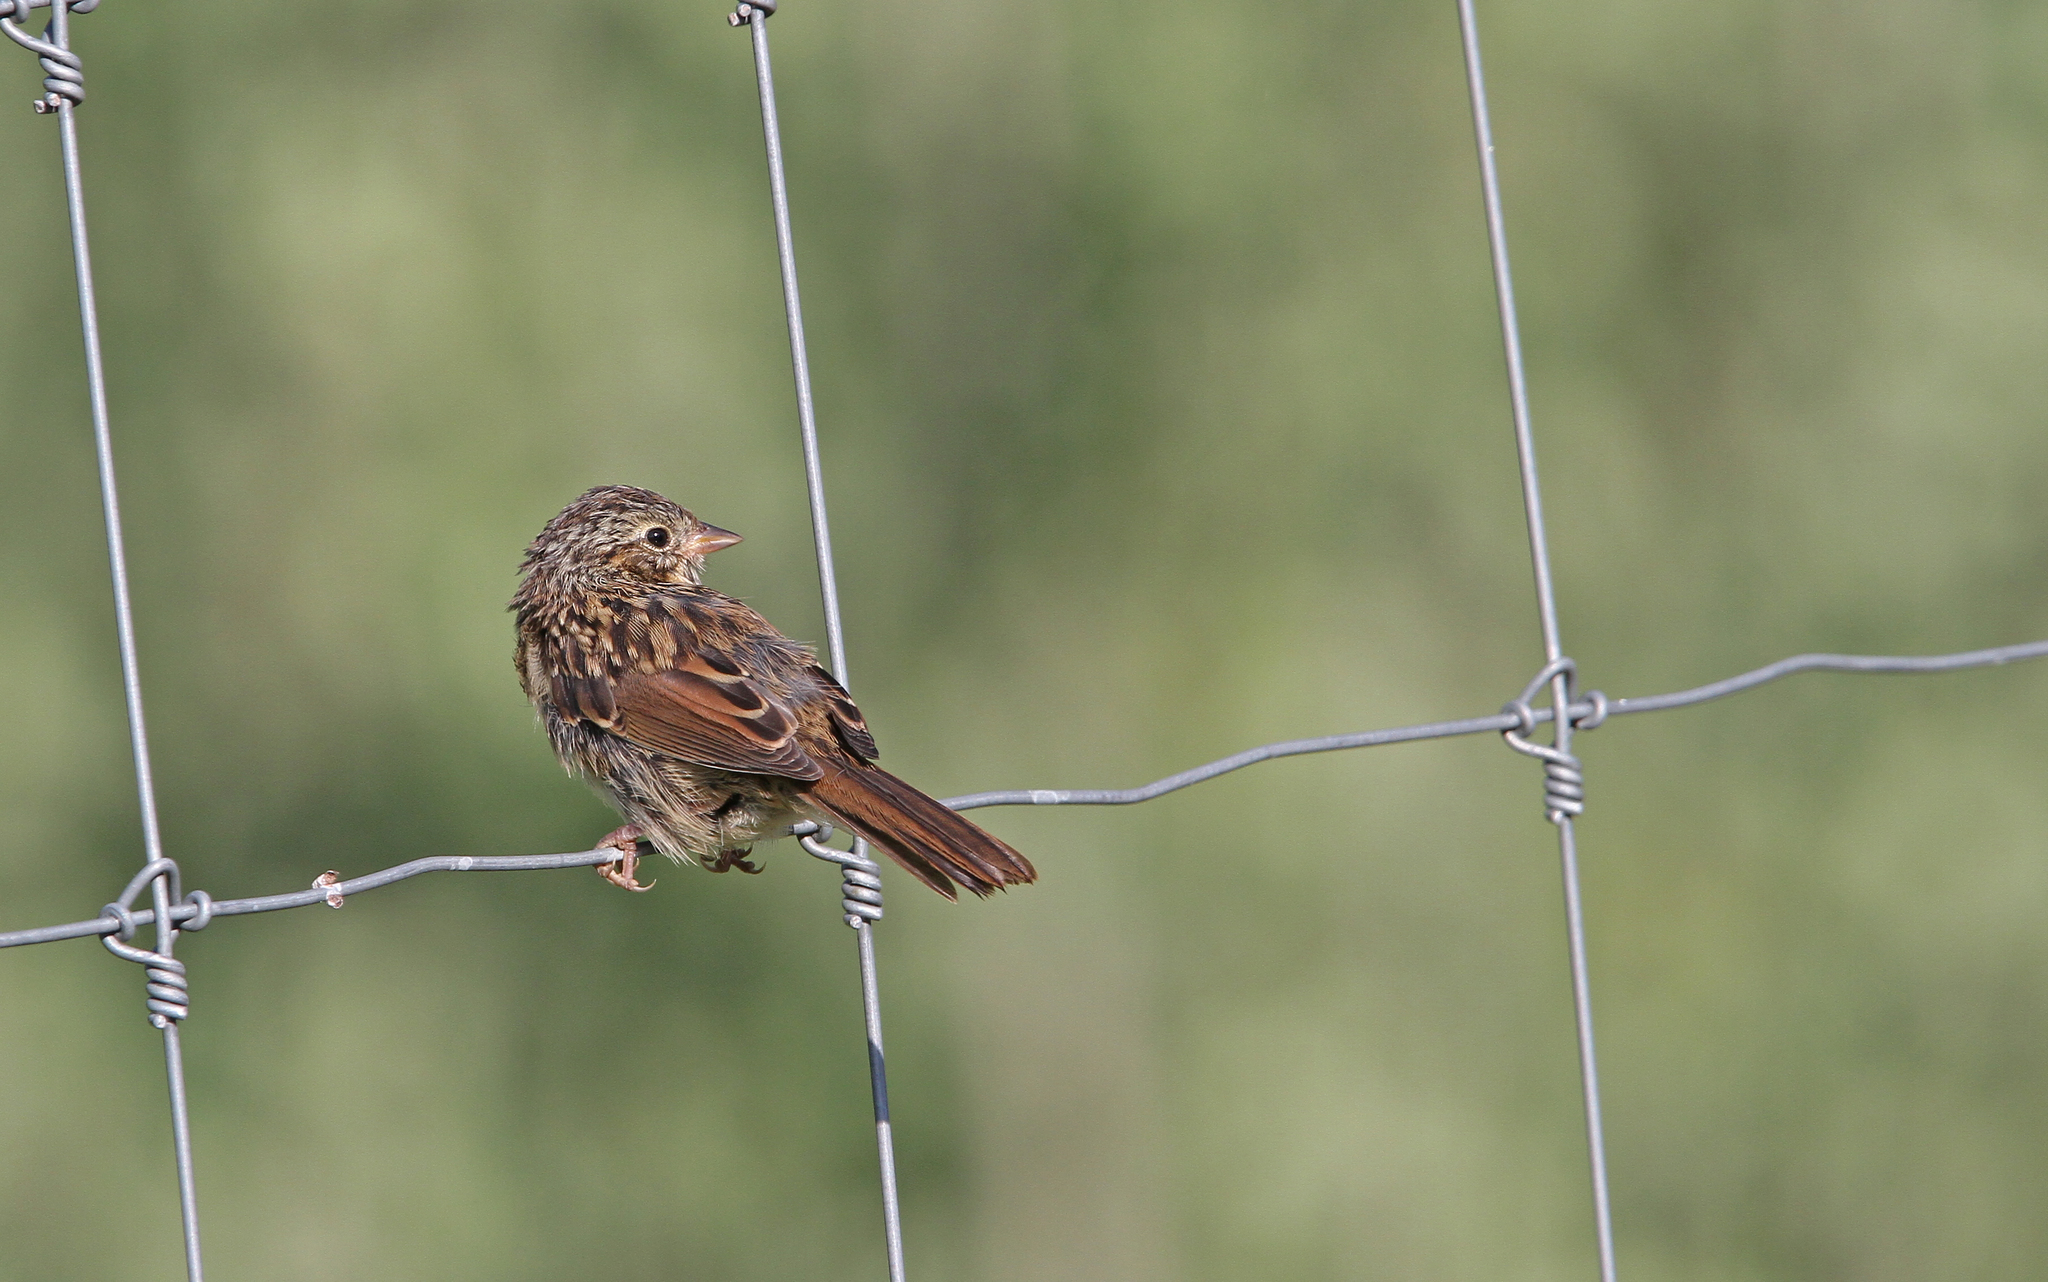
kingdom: Animalia
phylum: Chordata
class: Aves
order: Passeriformes
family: Passerellidae
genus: Melospiza
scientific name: Melospiza lincolnii
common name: Lincoln's sparrow
